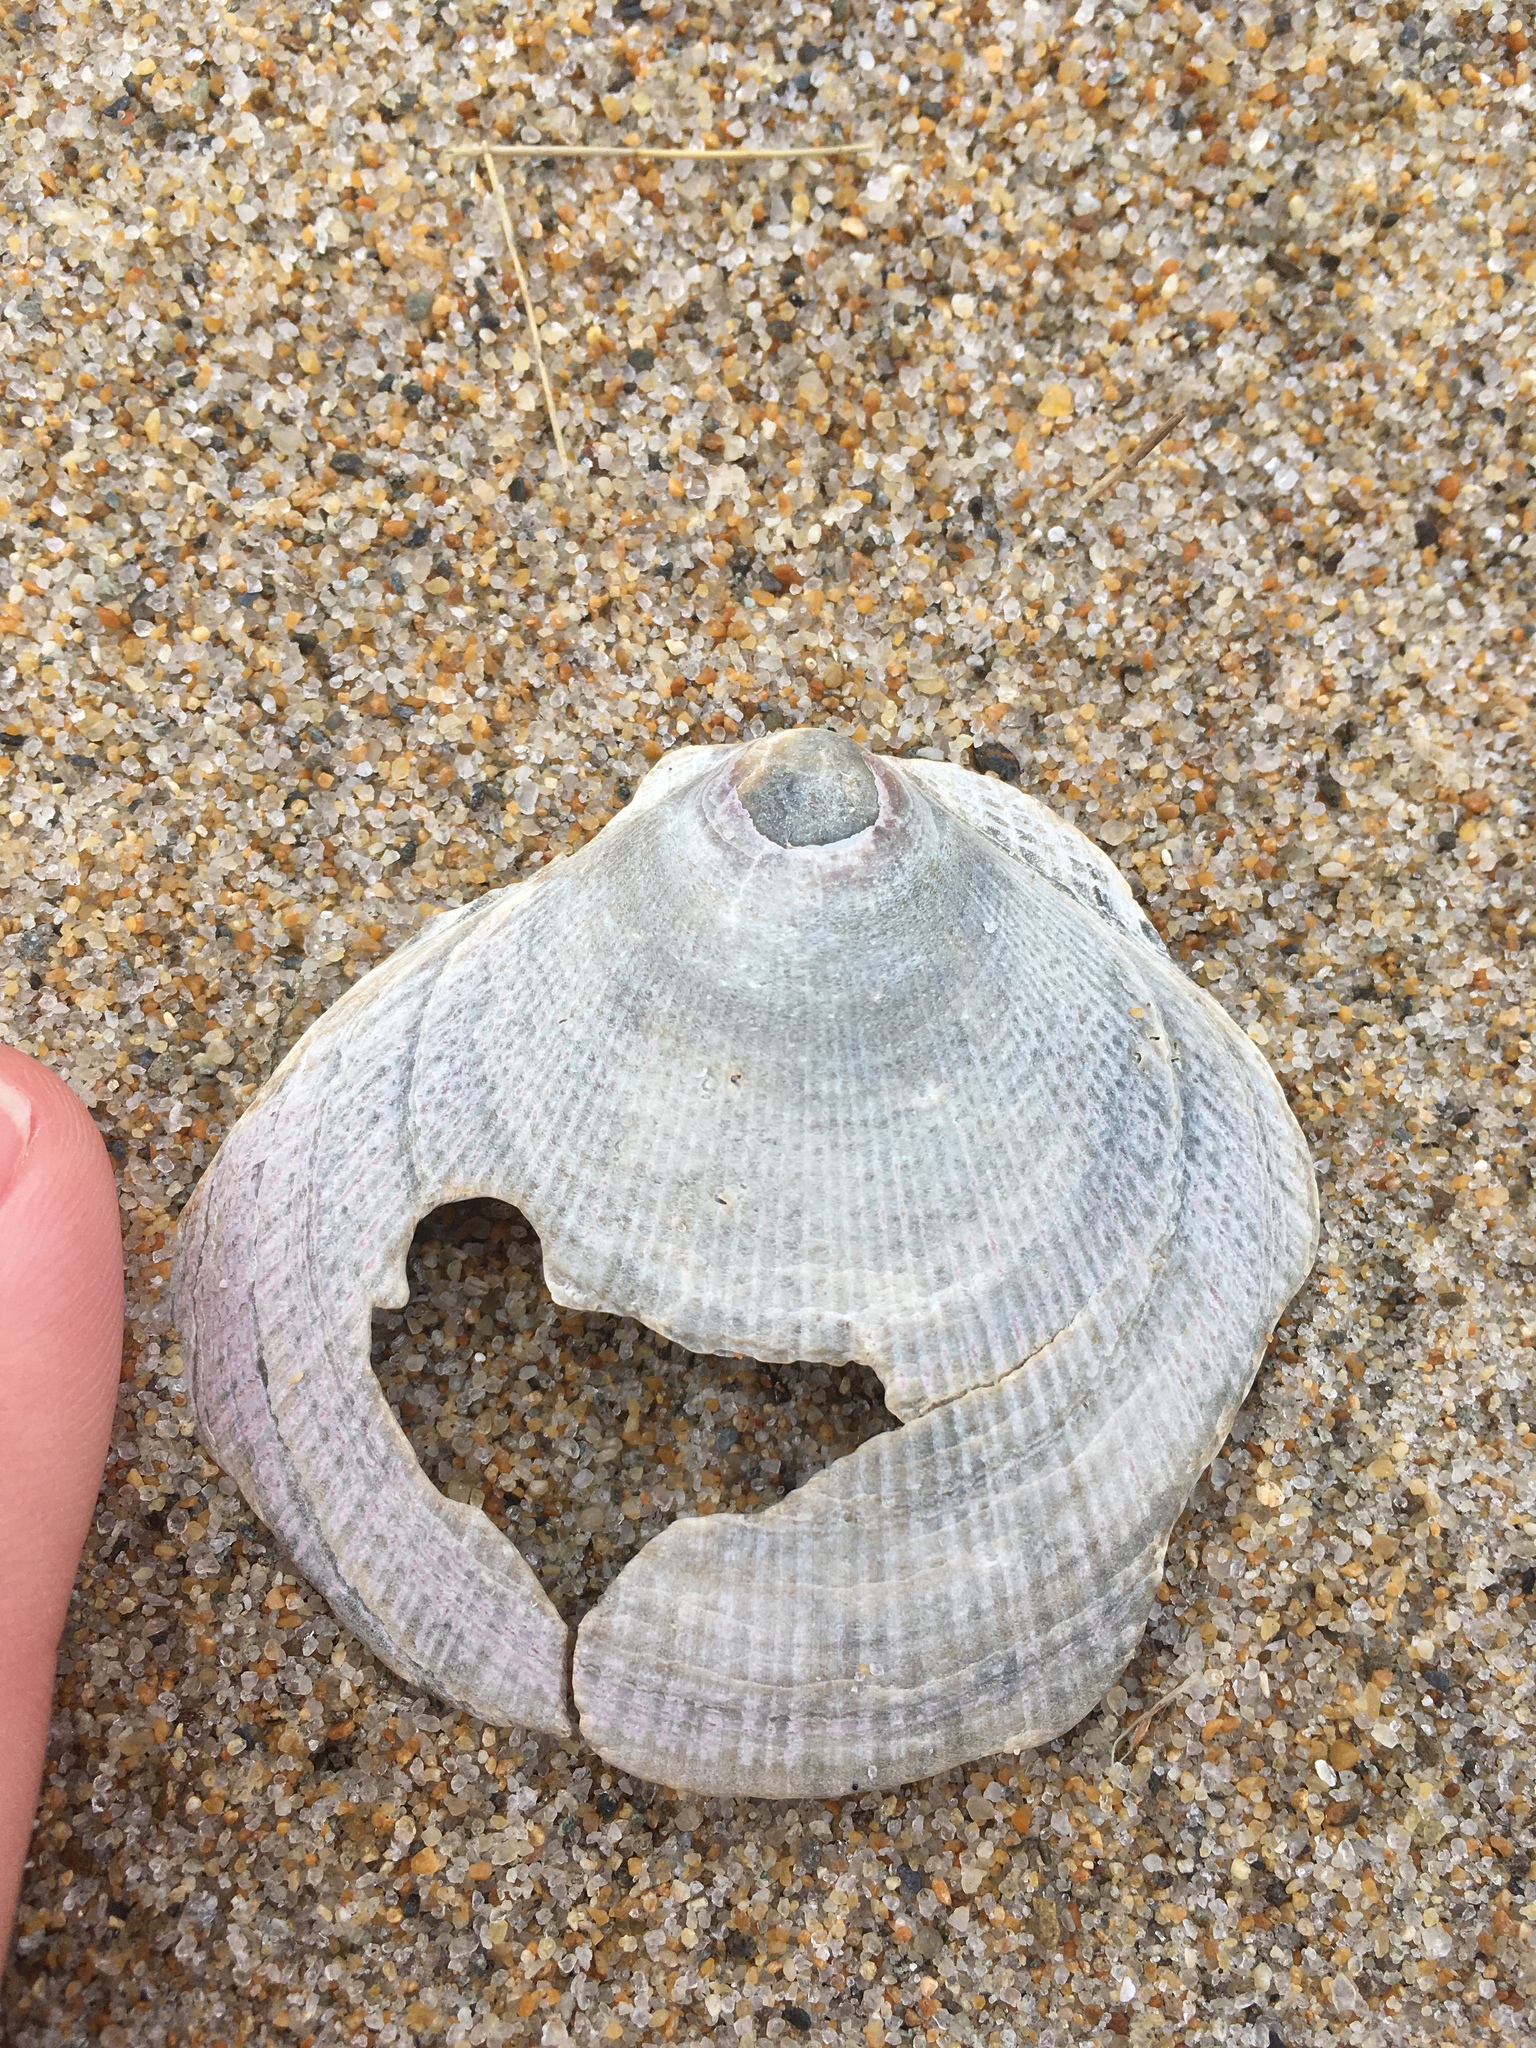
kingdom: Animalia
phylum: Mollusca
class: Bivalvia
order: Pectinida
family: Pectinidae
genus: Placopecten
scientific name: Placopecten magellanicus
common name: American sea scallop
